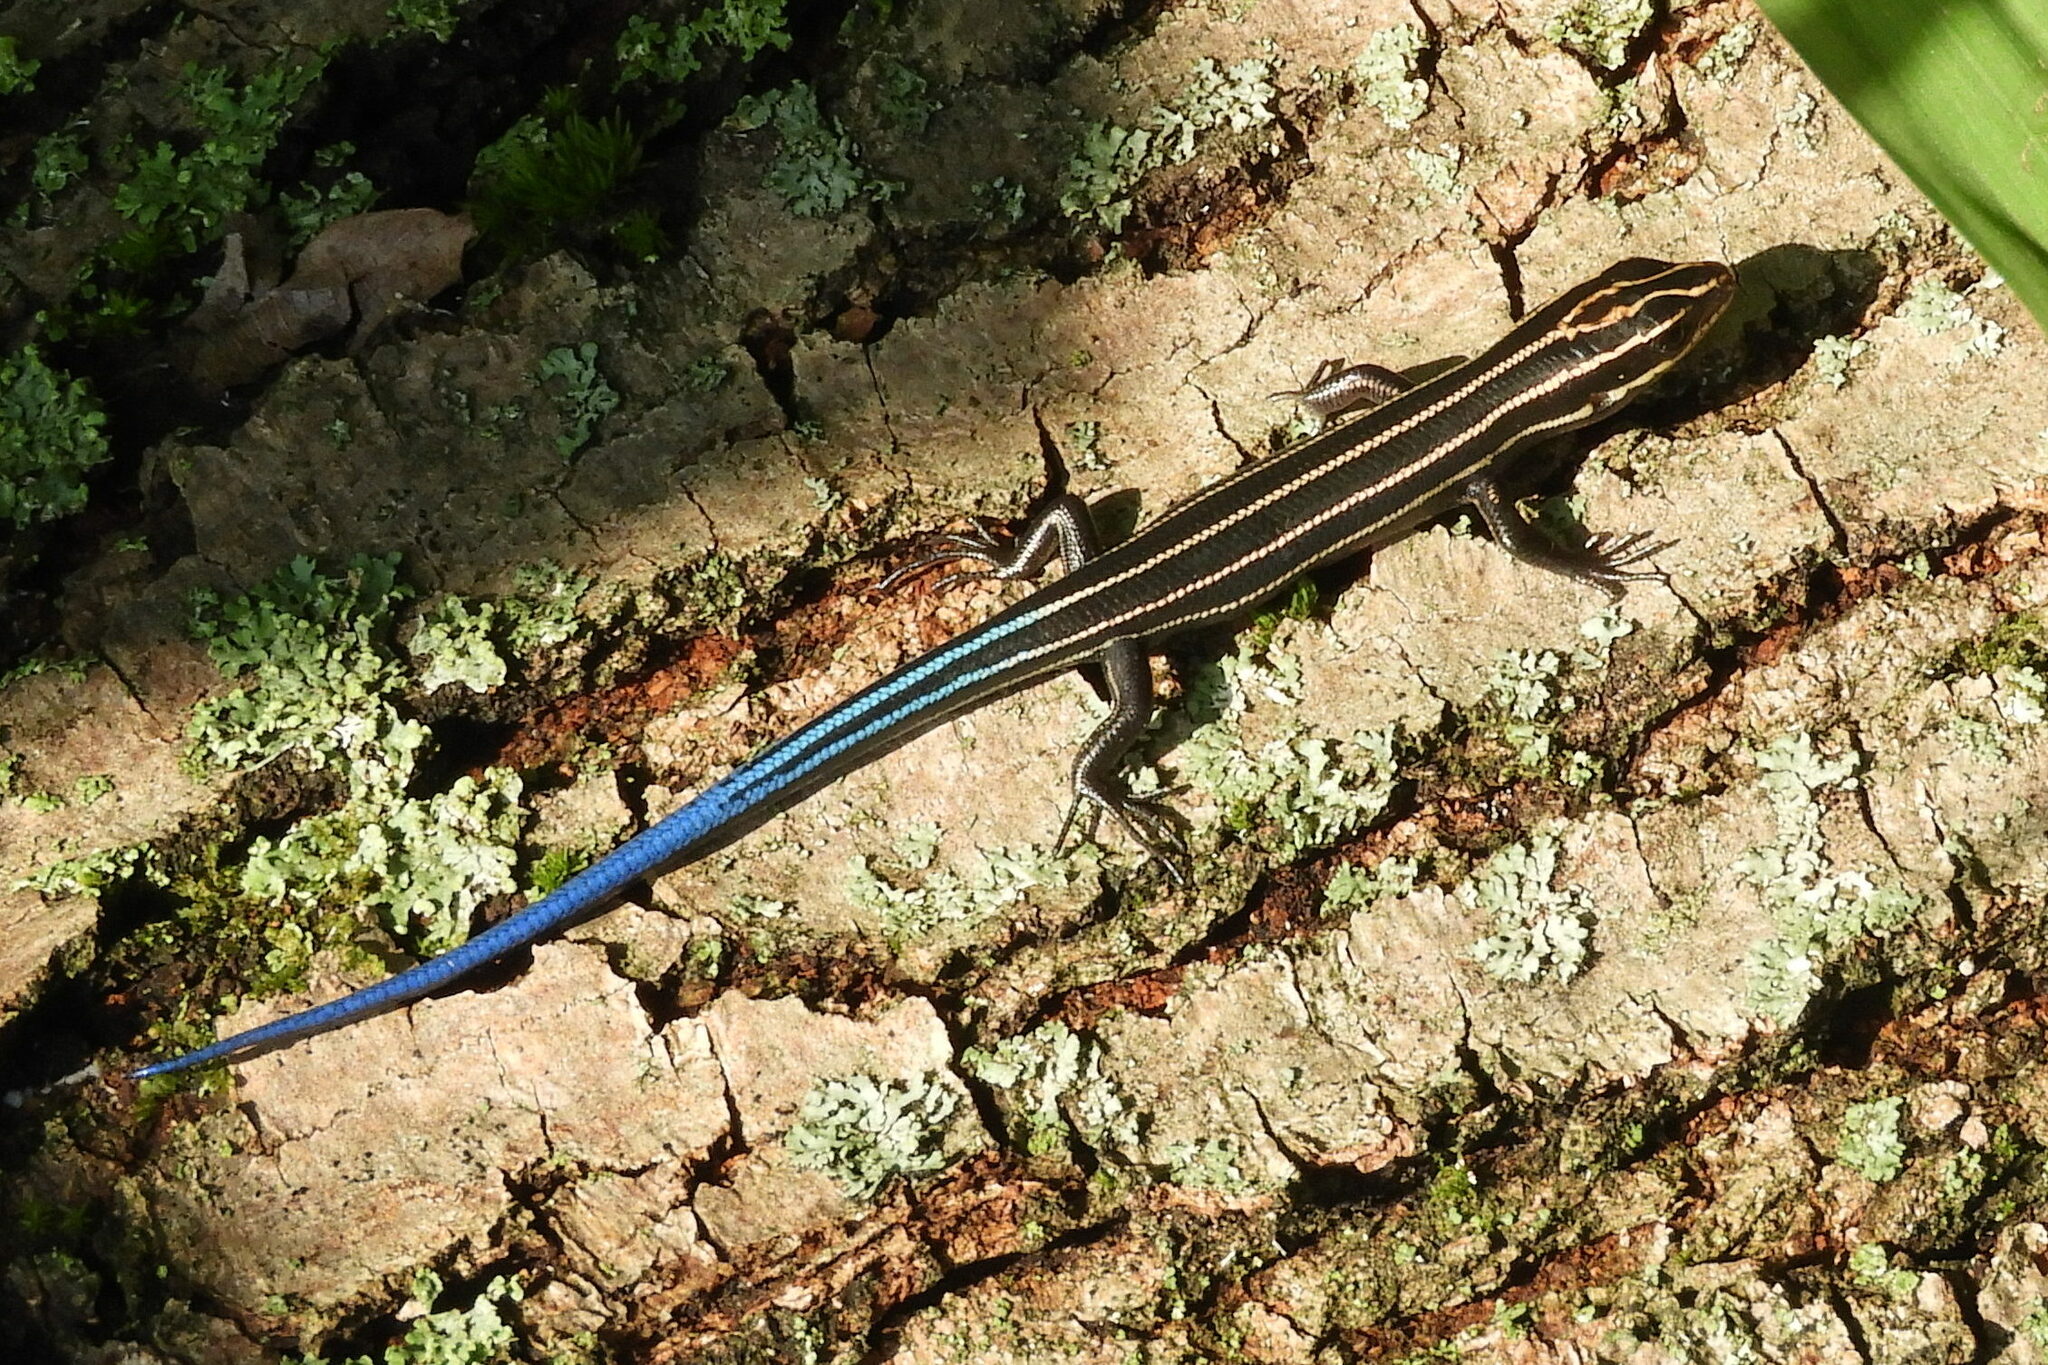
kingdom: Animalia
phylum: Chordata
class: Squamata
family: Scincidae
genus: Plestiodon
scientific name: Plestiodon fasciatus
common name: Five-lined skink
